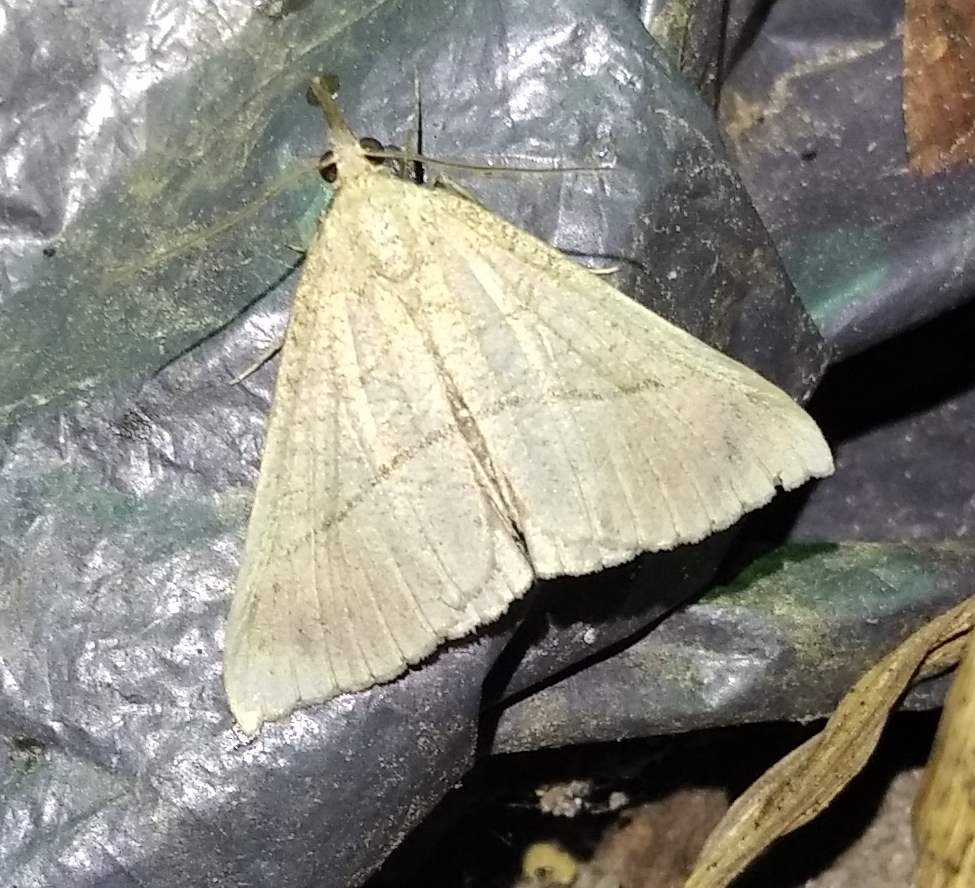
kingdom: Animalia
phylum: Arthropoda
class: Insecta
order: Lepidoptera
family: Erebidae
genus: Hypena
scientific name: Hypena proboscidalis
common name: Snout
